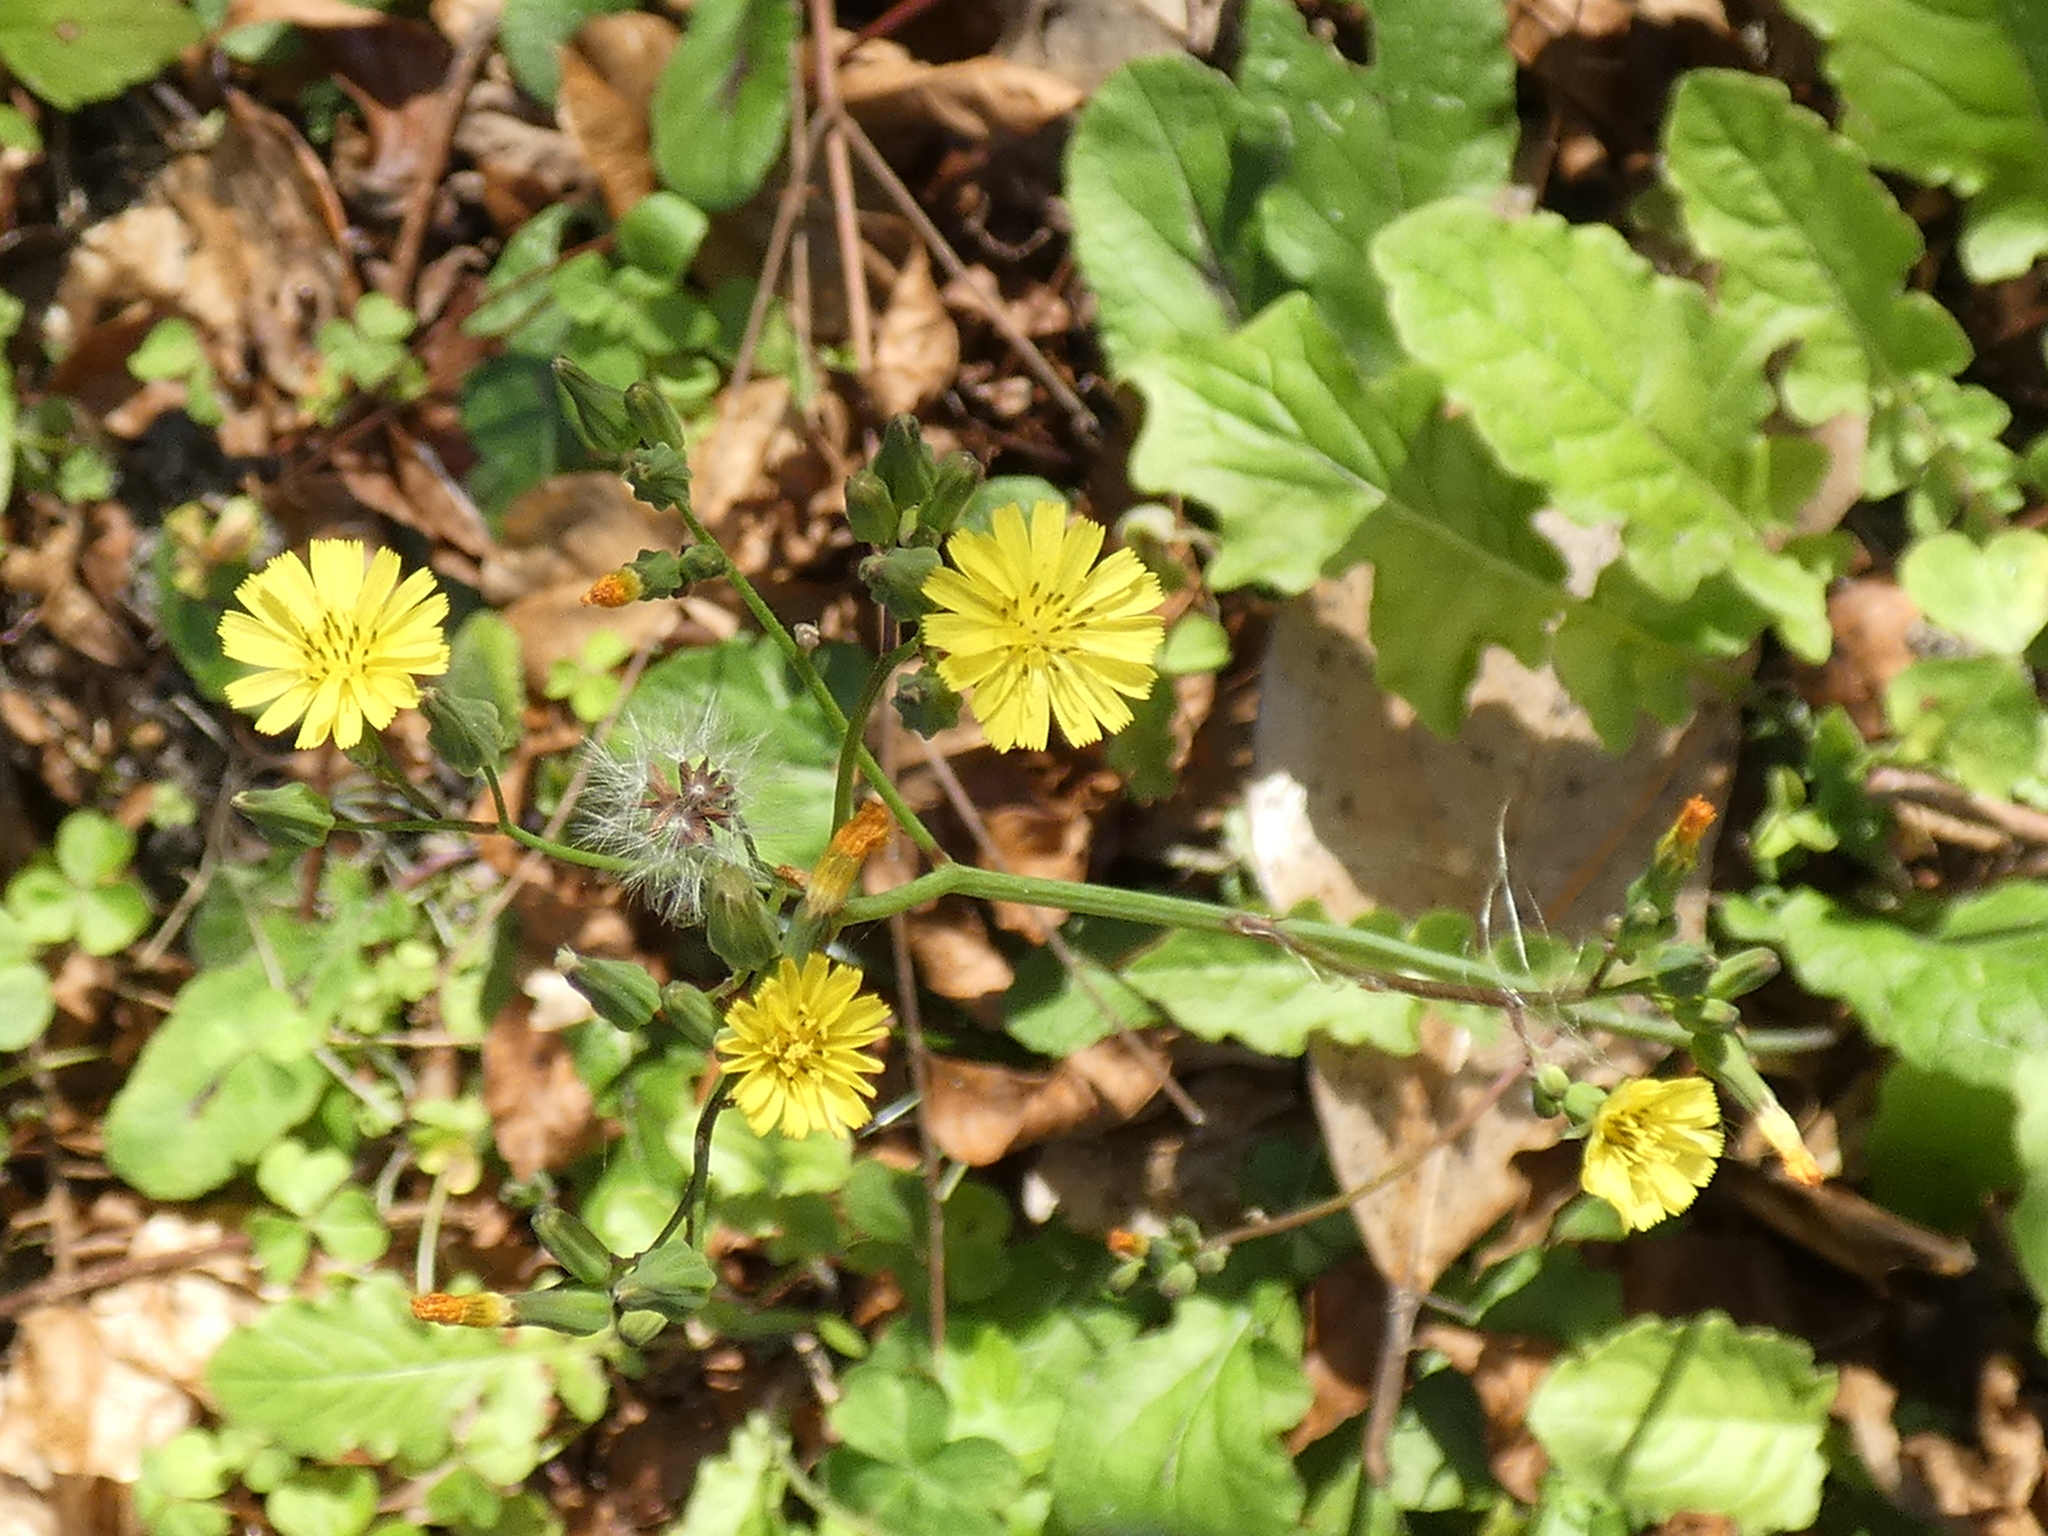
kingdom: Plantae
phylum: Tracheophyta
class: Magnoliopsida
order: Asterales
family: Asteraceae
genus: Youngia
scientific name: Youngia japonica
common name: Oriental false hawksbeard
